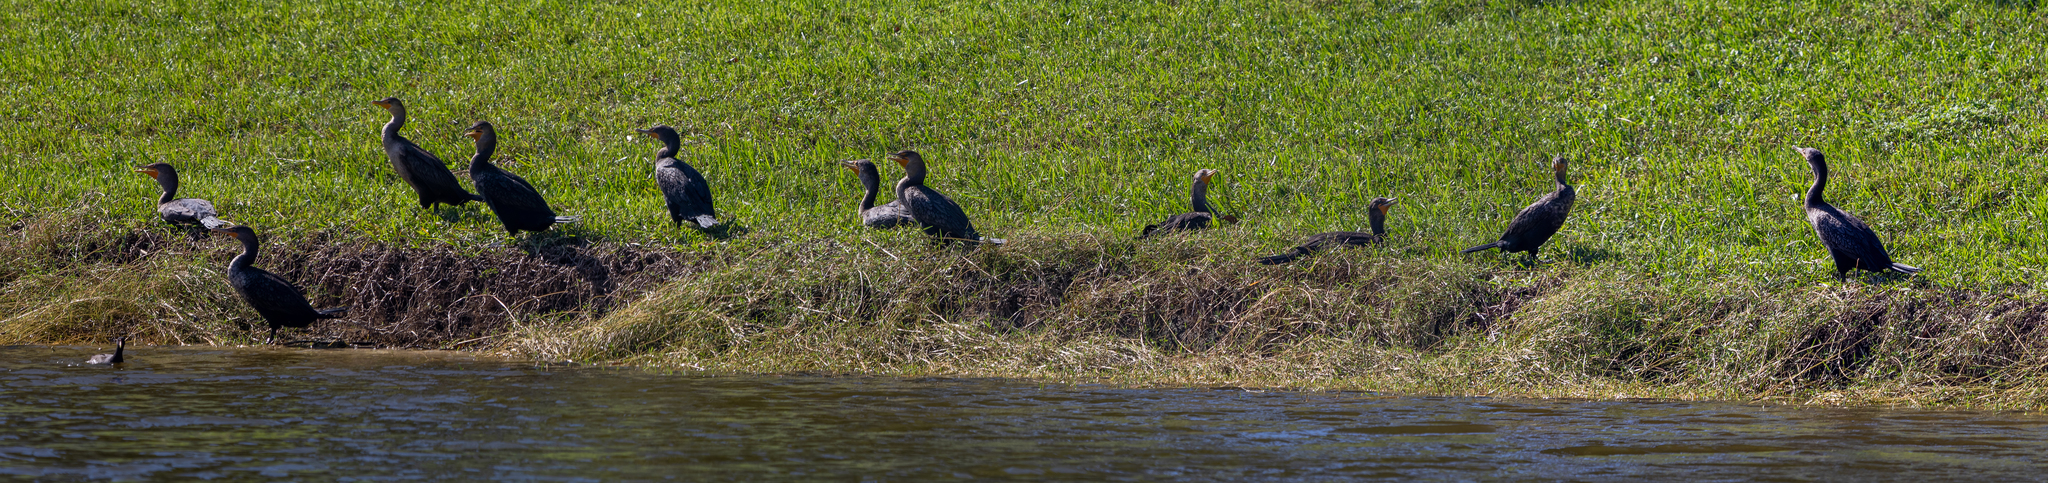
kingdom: Animalia
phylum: Chordata
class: Aves
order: Suliformes
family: Phalacrocoracidae
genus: Phalacrocorax
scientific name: Phalacrocorax auritus
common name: Double-crested cormorant
